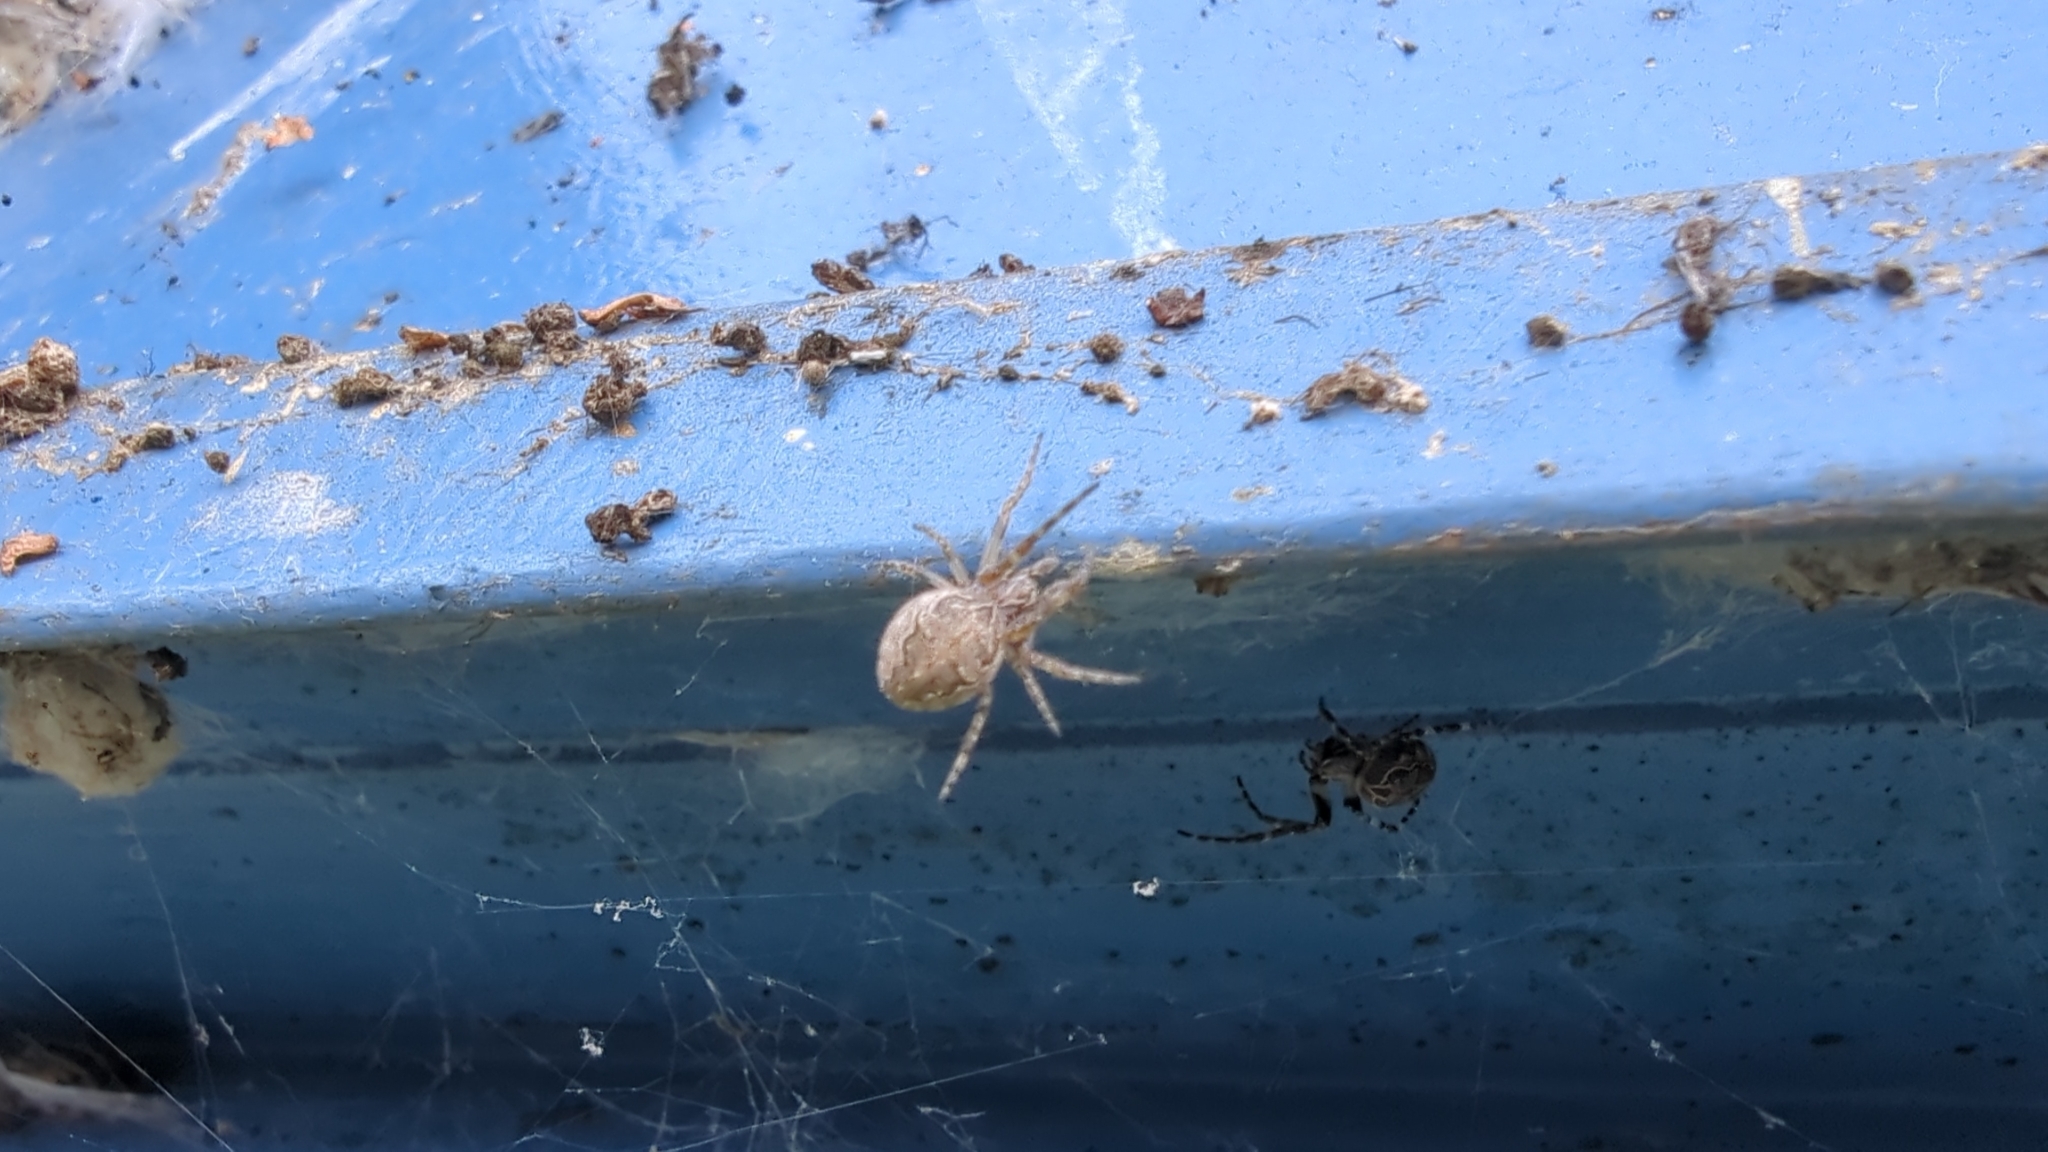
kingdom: Animalia
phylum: Arthropoda
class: Arachnida
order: Araneae
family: Araneidae
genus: Larinioides
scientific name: Larinioides sclopetarius
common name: Bridge orbweaver
